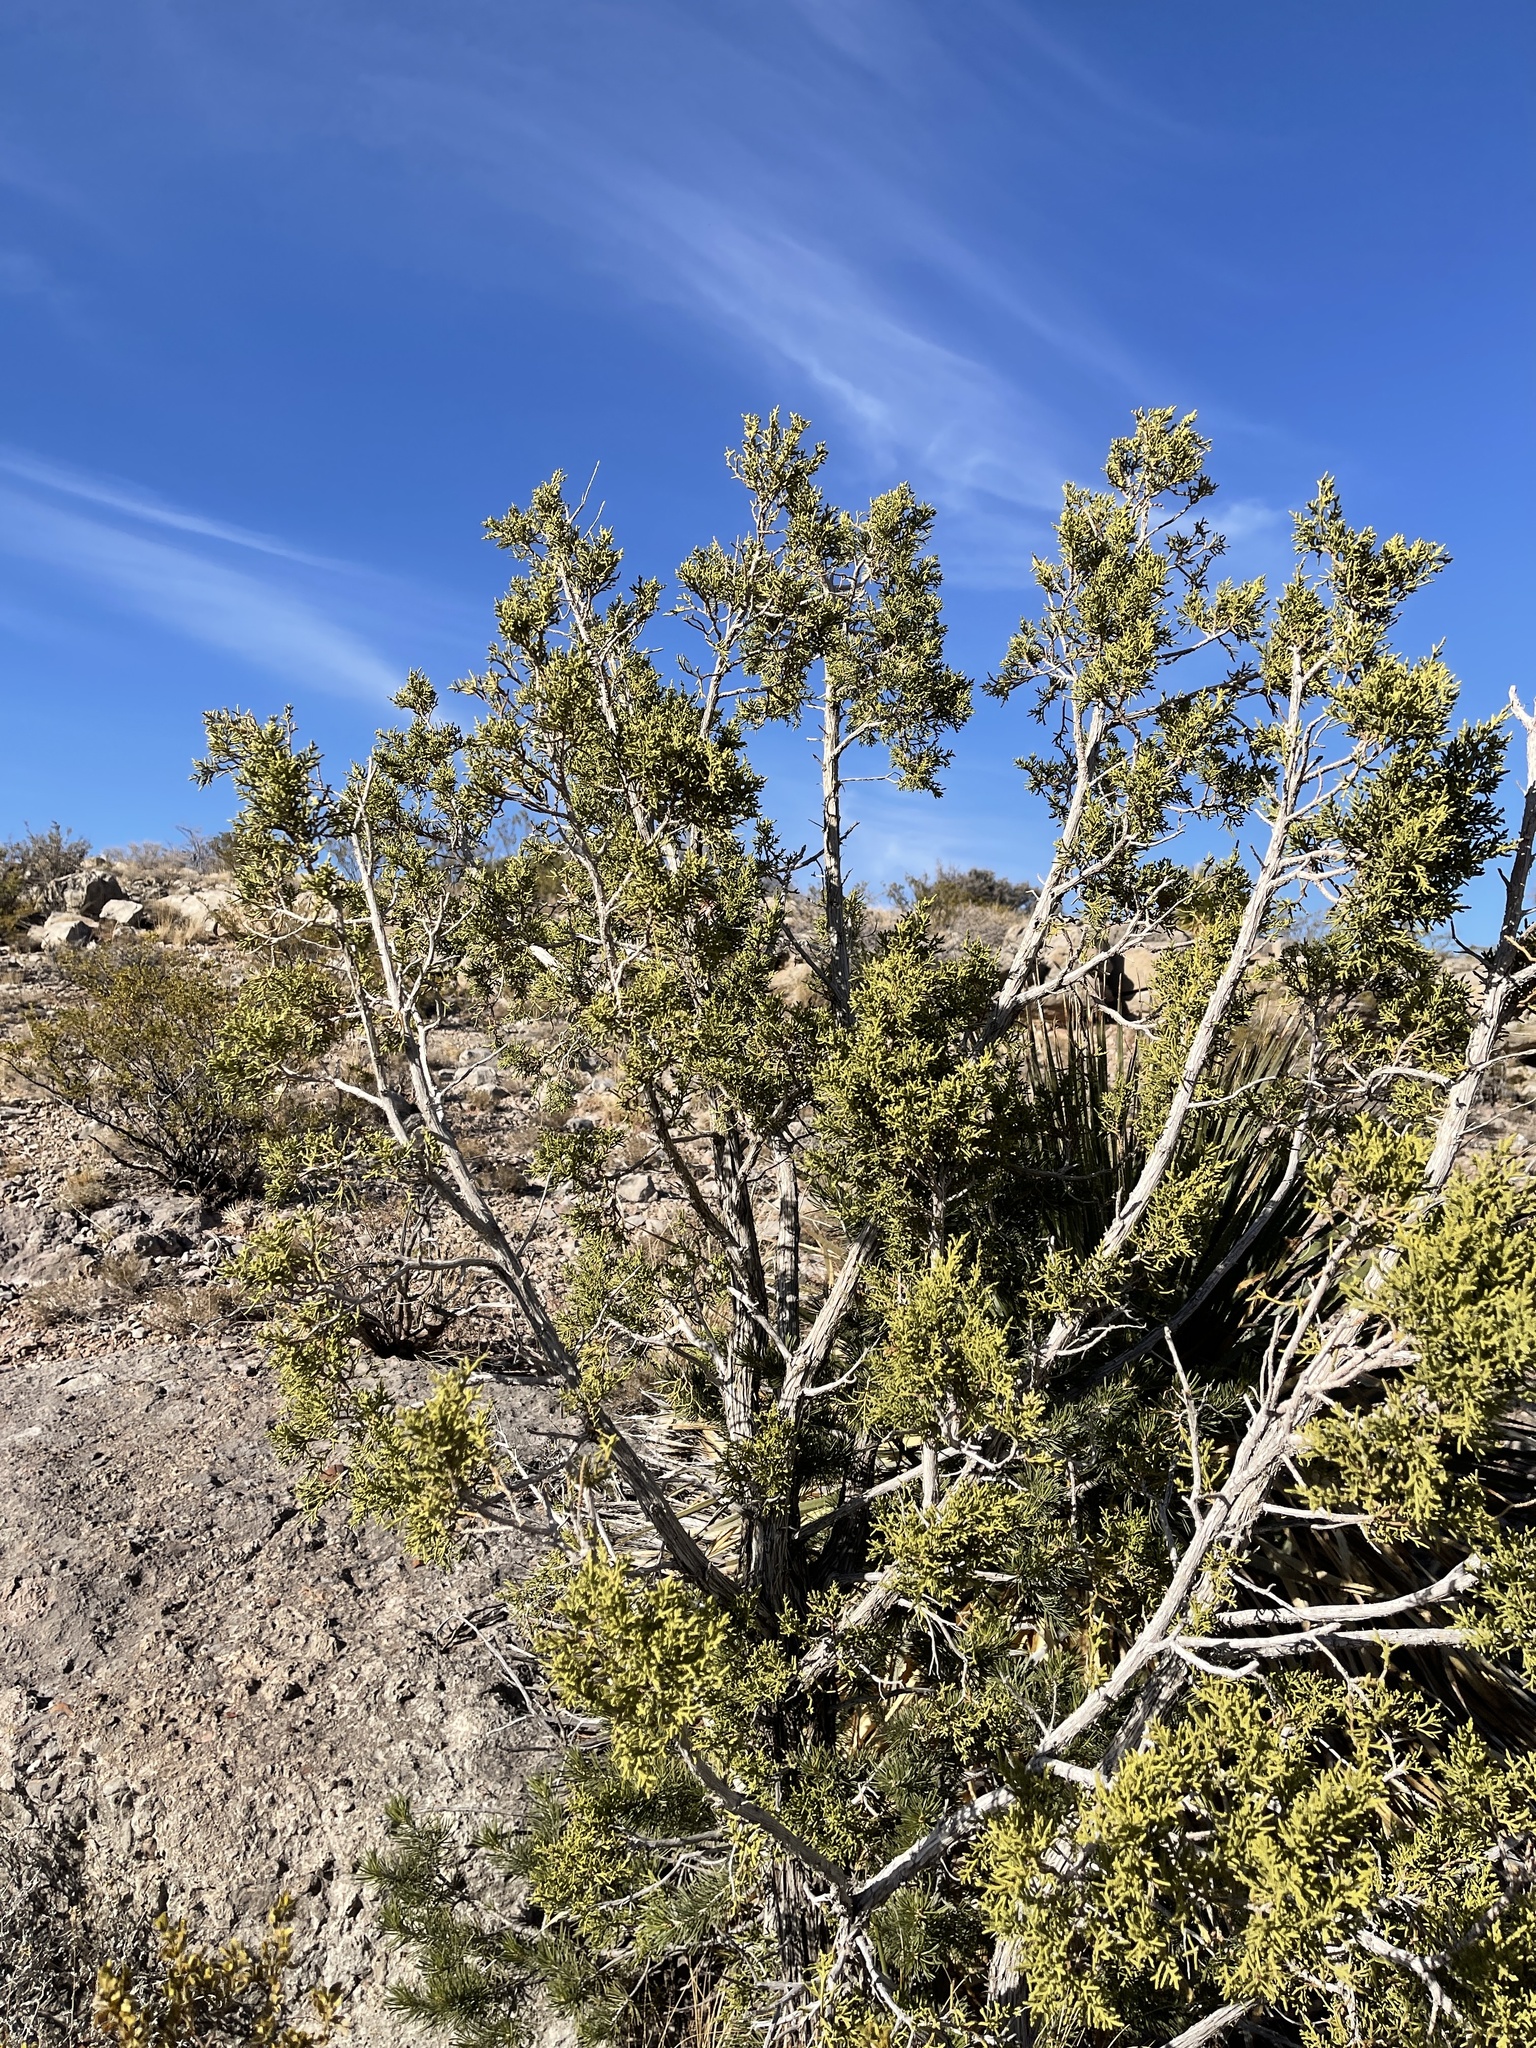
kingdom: Plantae
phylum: Tracheophyta
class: Pinopsida
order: Pinales
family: Cupressaceae
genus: Juniperus
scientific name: Juniperus monosperma
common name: One-seed juniper
